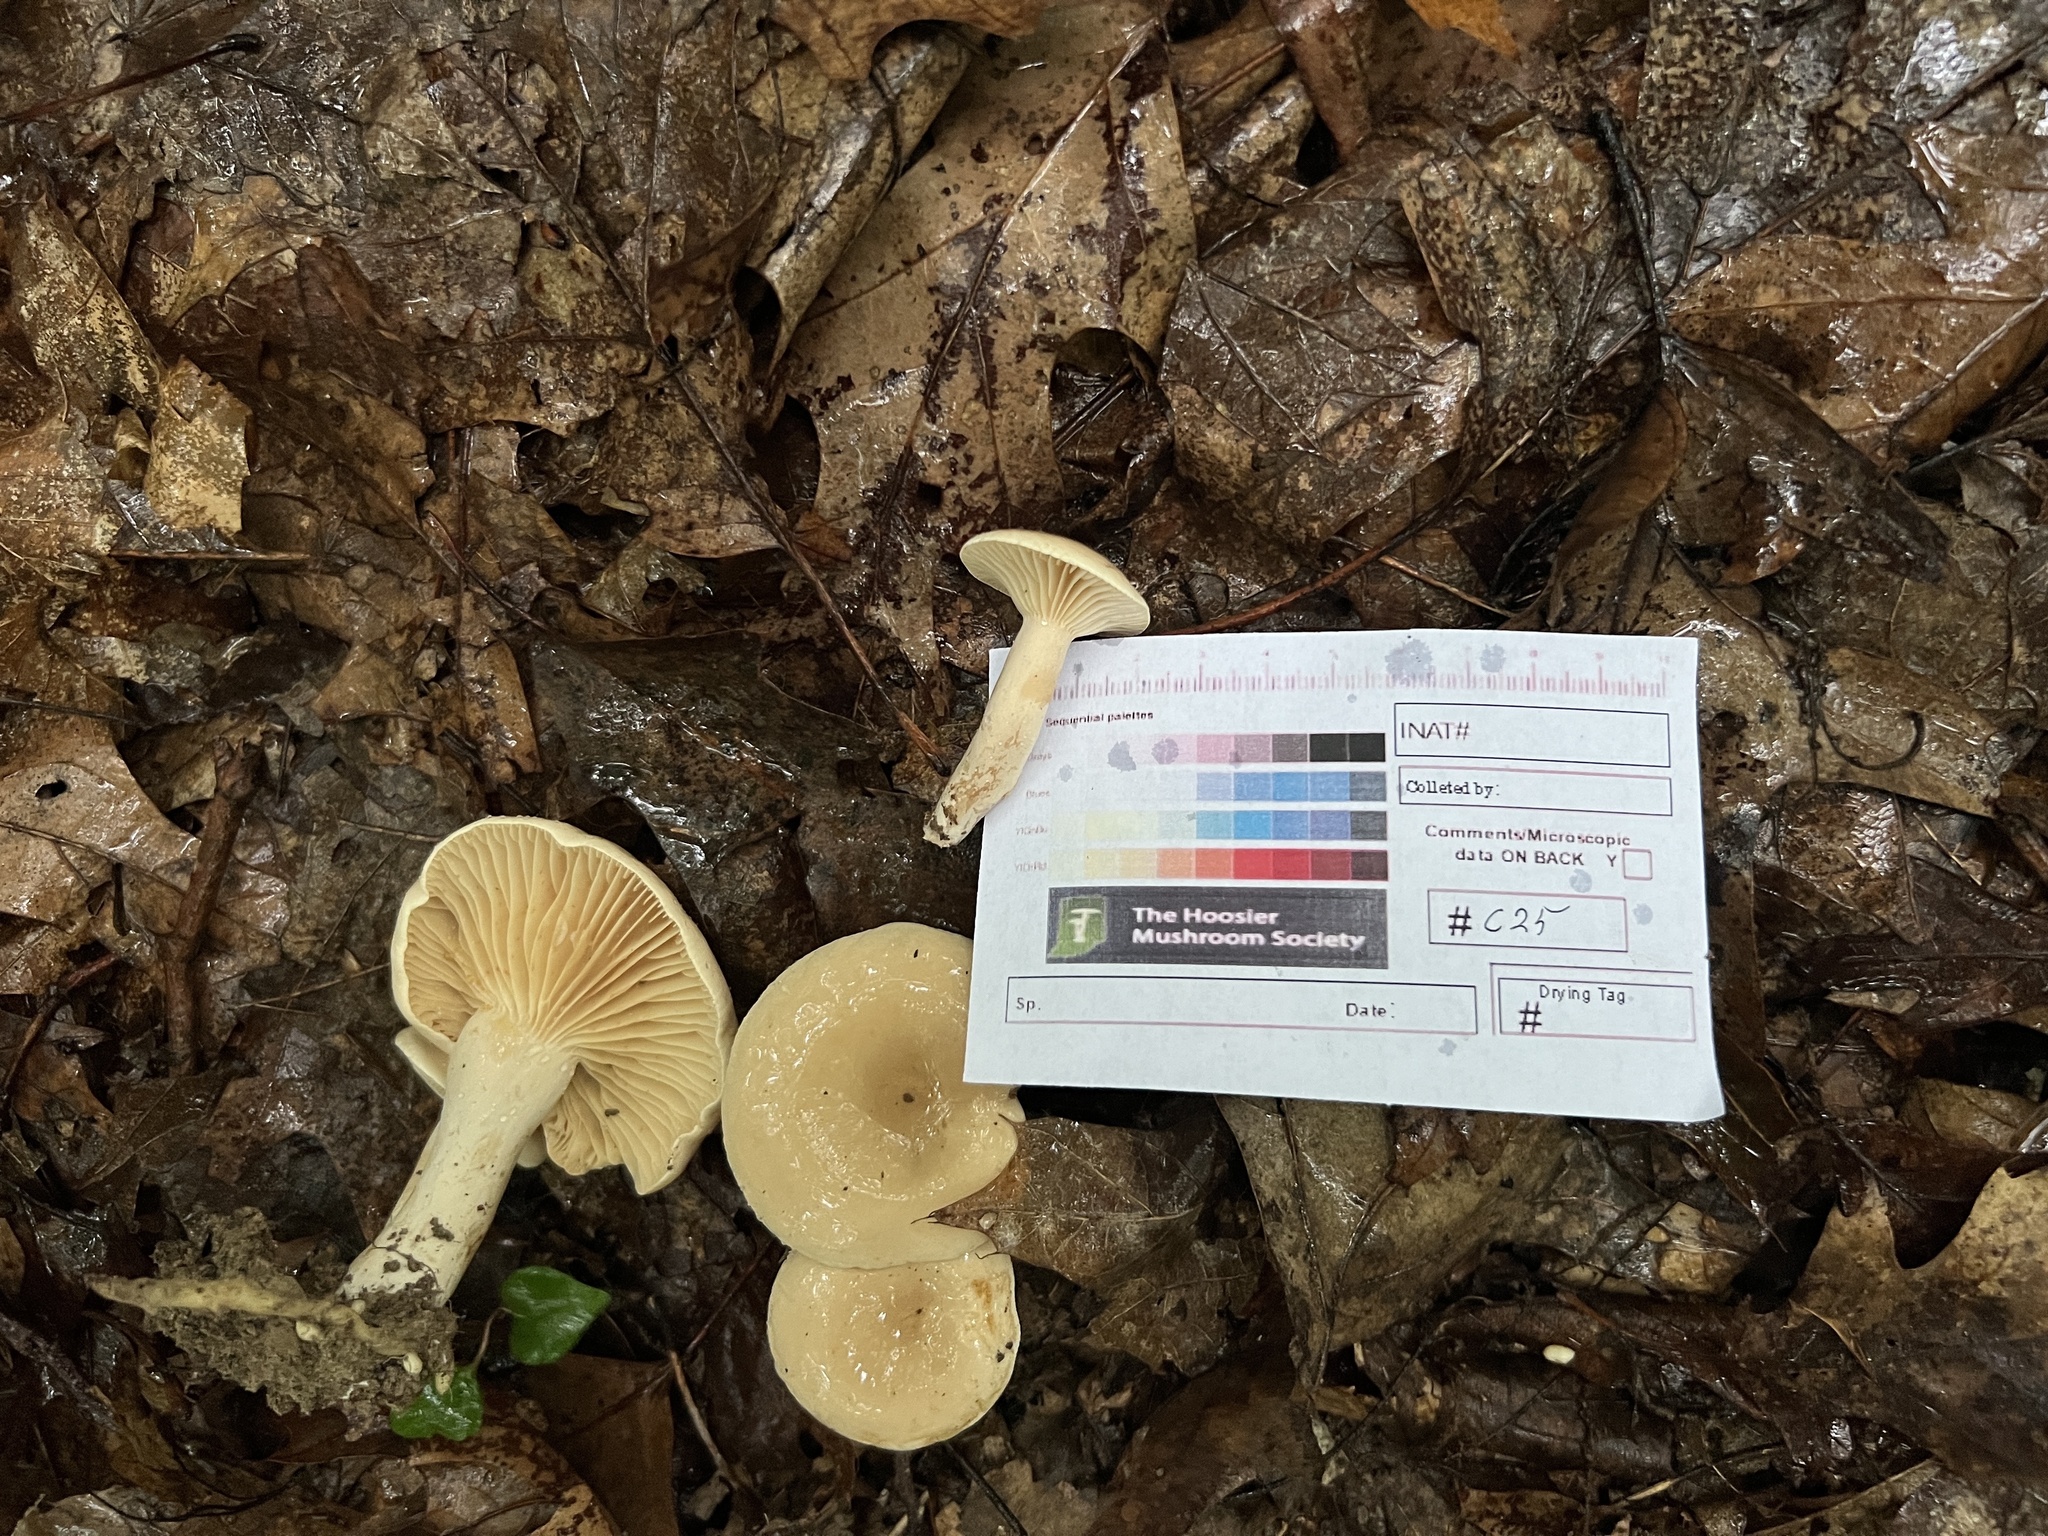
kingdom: Fungi
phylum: Basidiomycota
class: Agaricomycetes
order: Russulales
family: Russulaceae
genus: Lactarius
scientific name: Lactarius subplinthogalus
